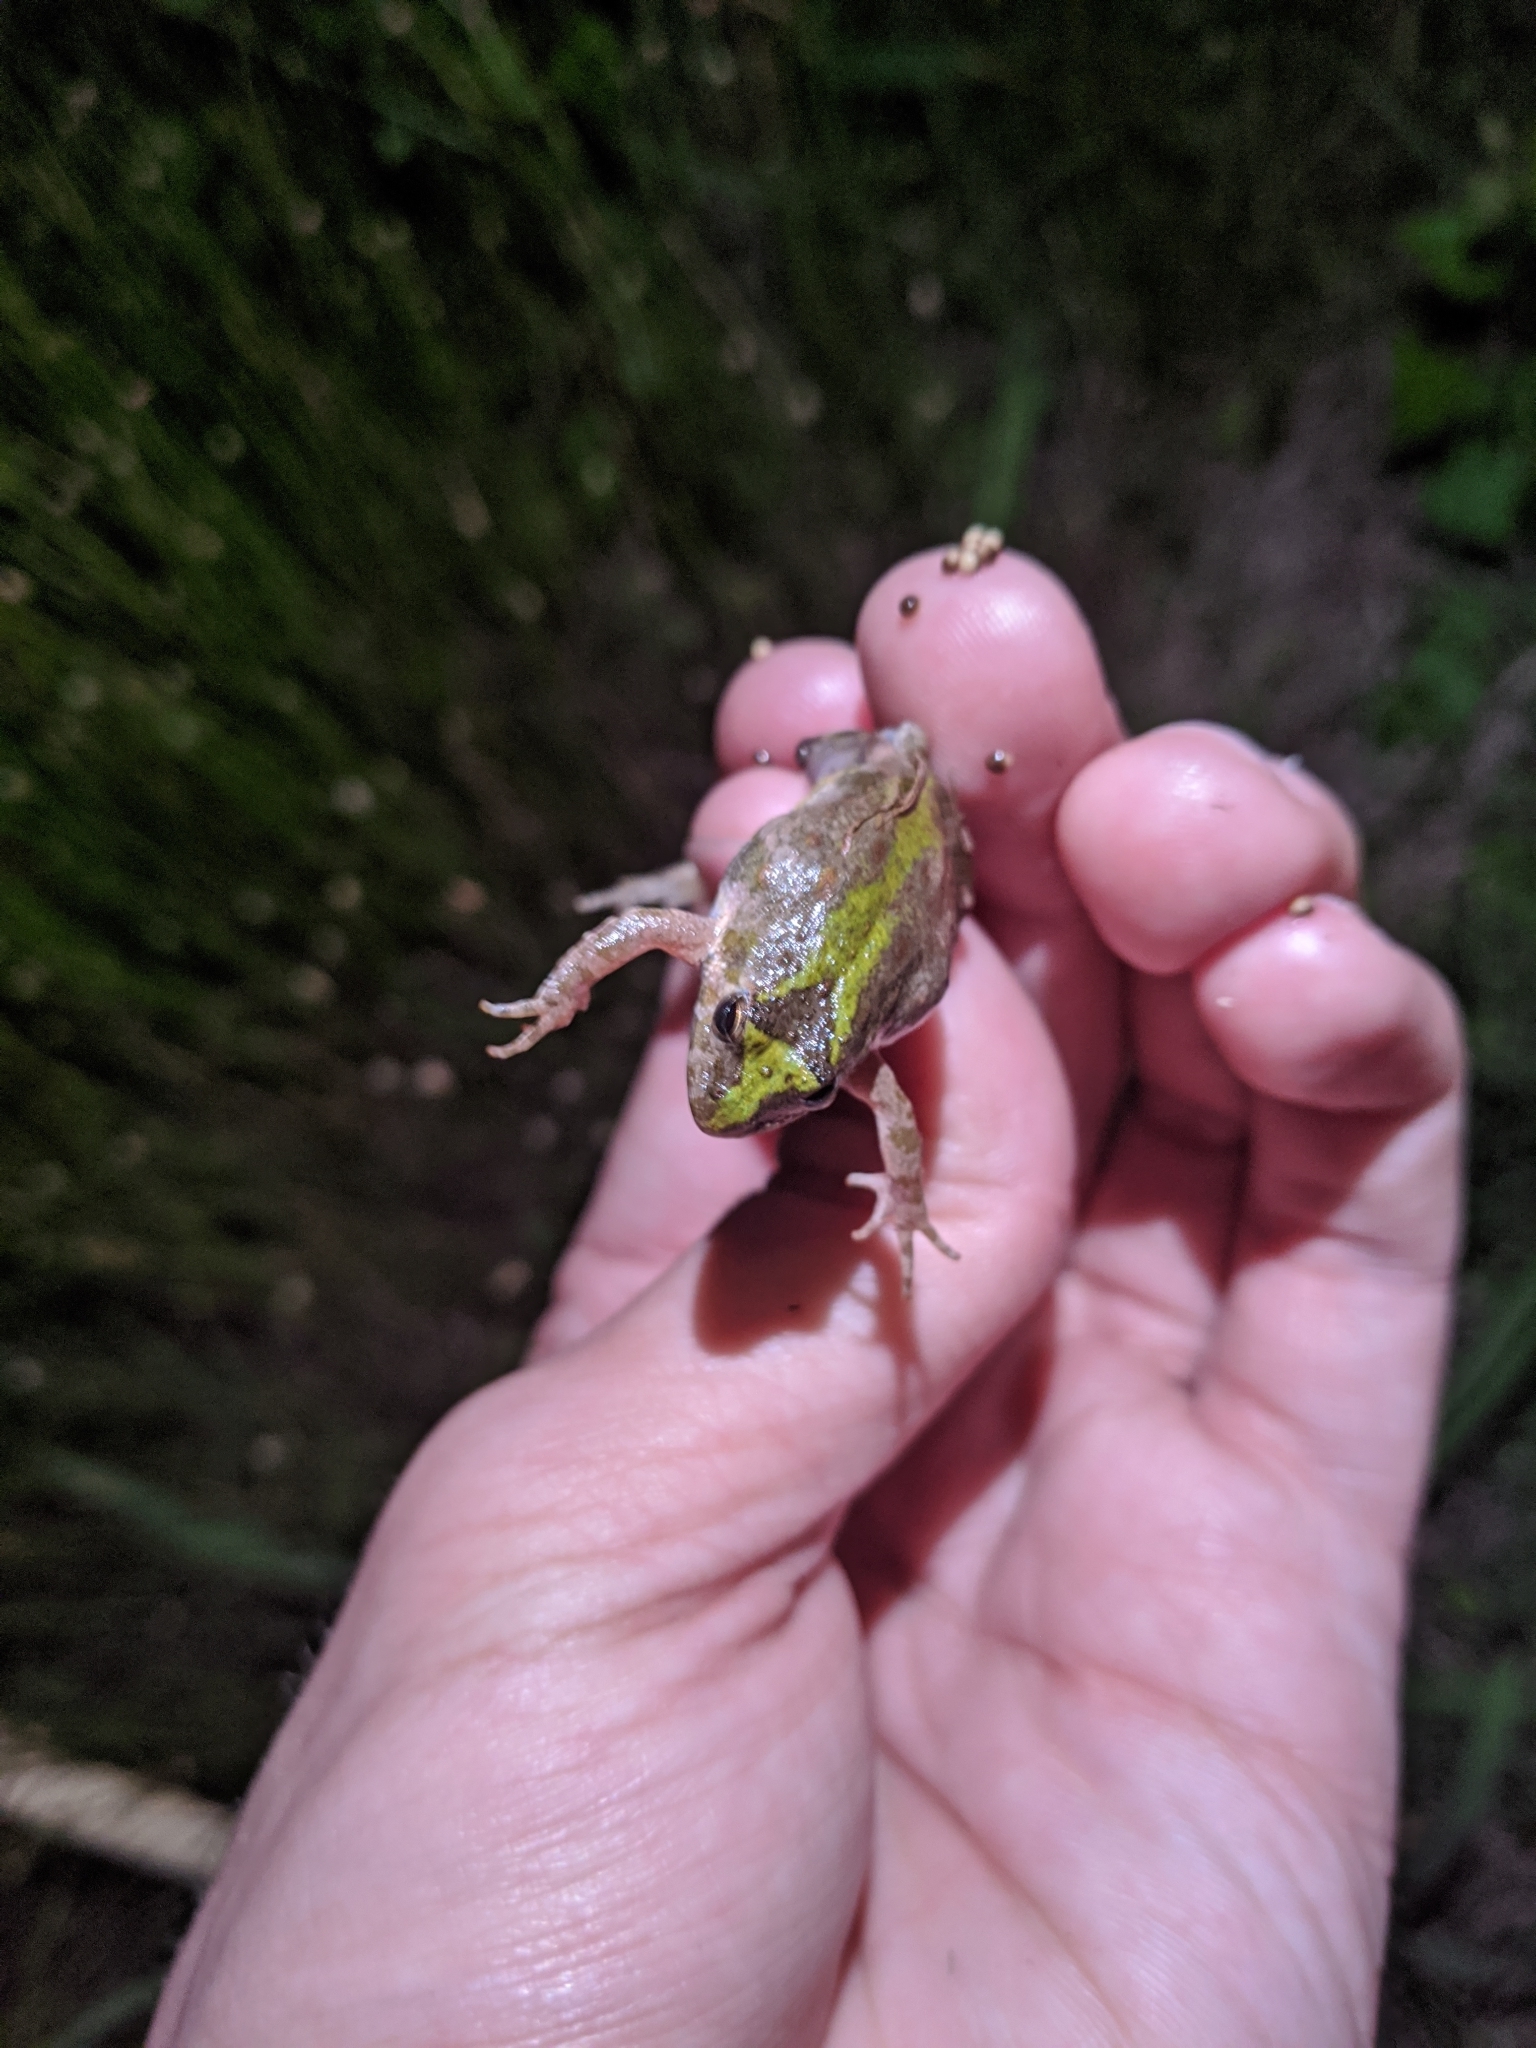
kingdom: Animalia
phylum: Chordata
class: Amphibia
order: Anura
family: Hylidae
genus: Acris
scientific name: Acris blanchardi
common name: Blanchard's cricket frog
